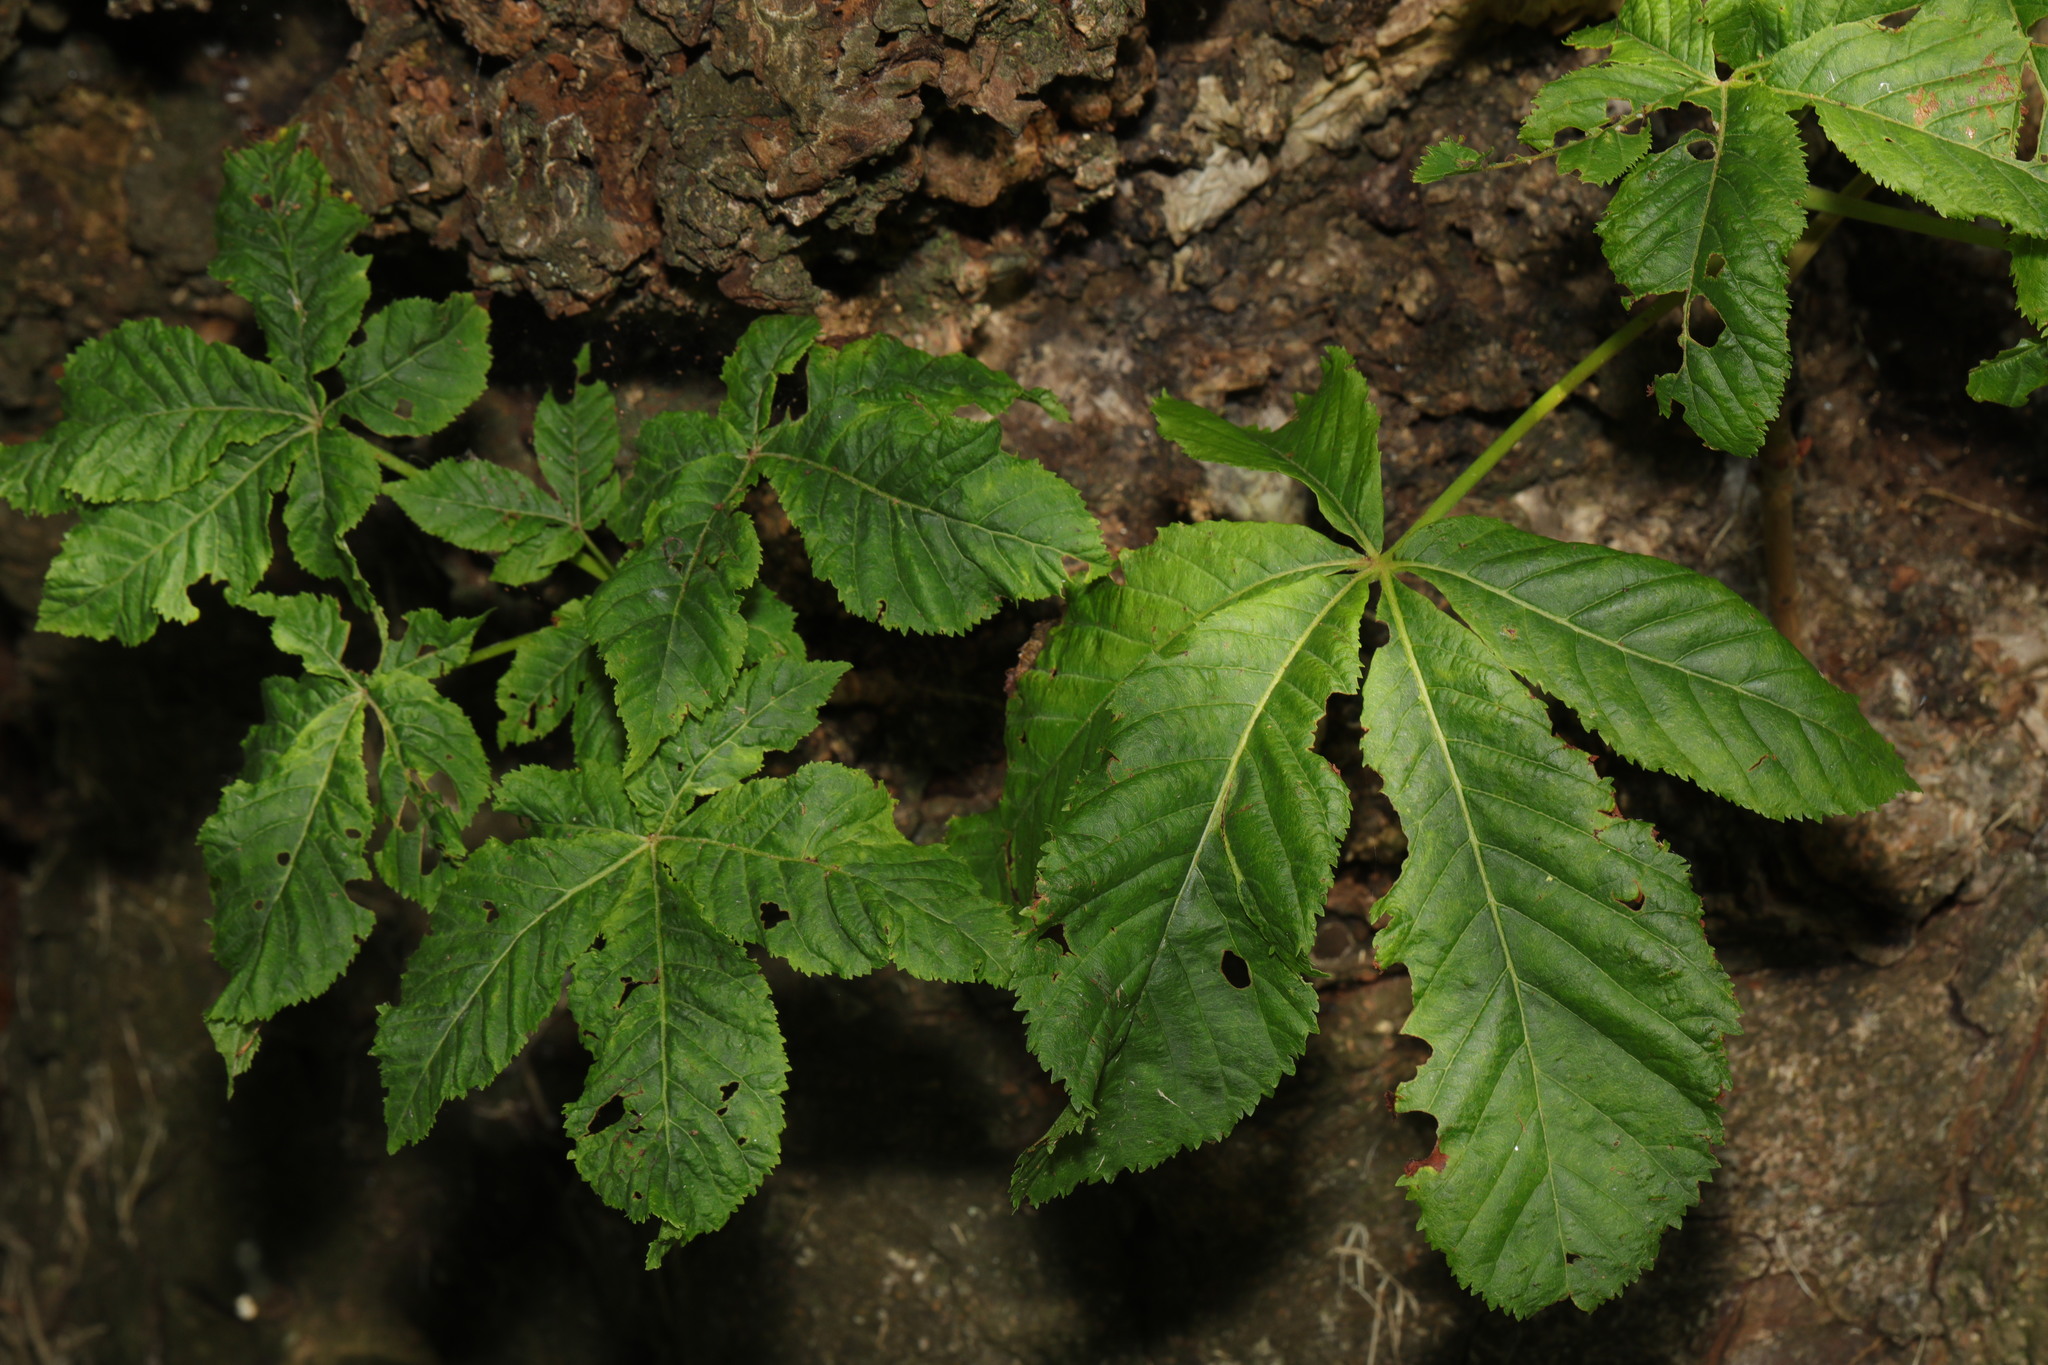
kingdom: Plantae
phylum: Tracheophyta
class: Magnoliopsida
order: Sapindales
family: Sapindaceae
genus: Aesculus
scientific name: Aesculus hippocastanum
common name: Horse-chestnut
